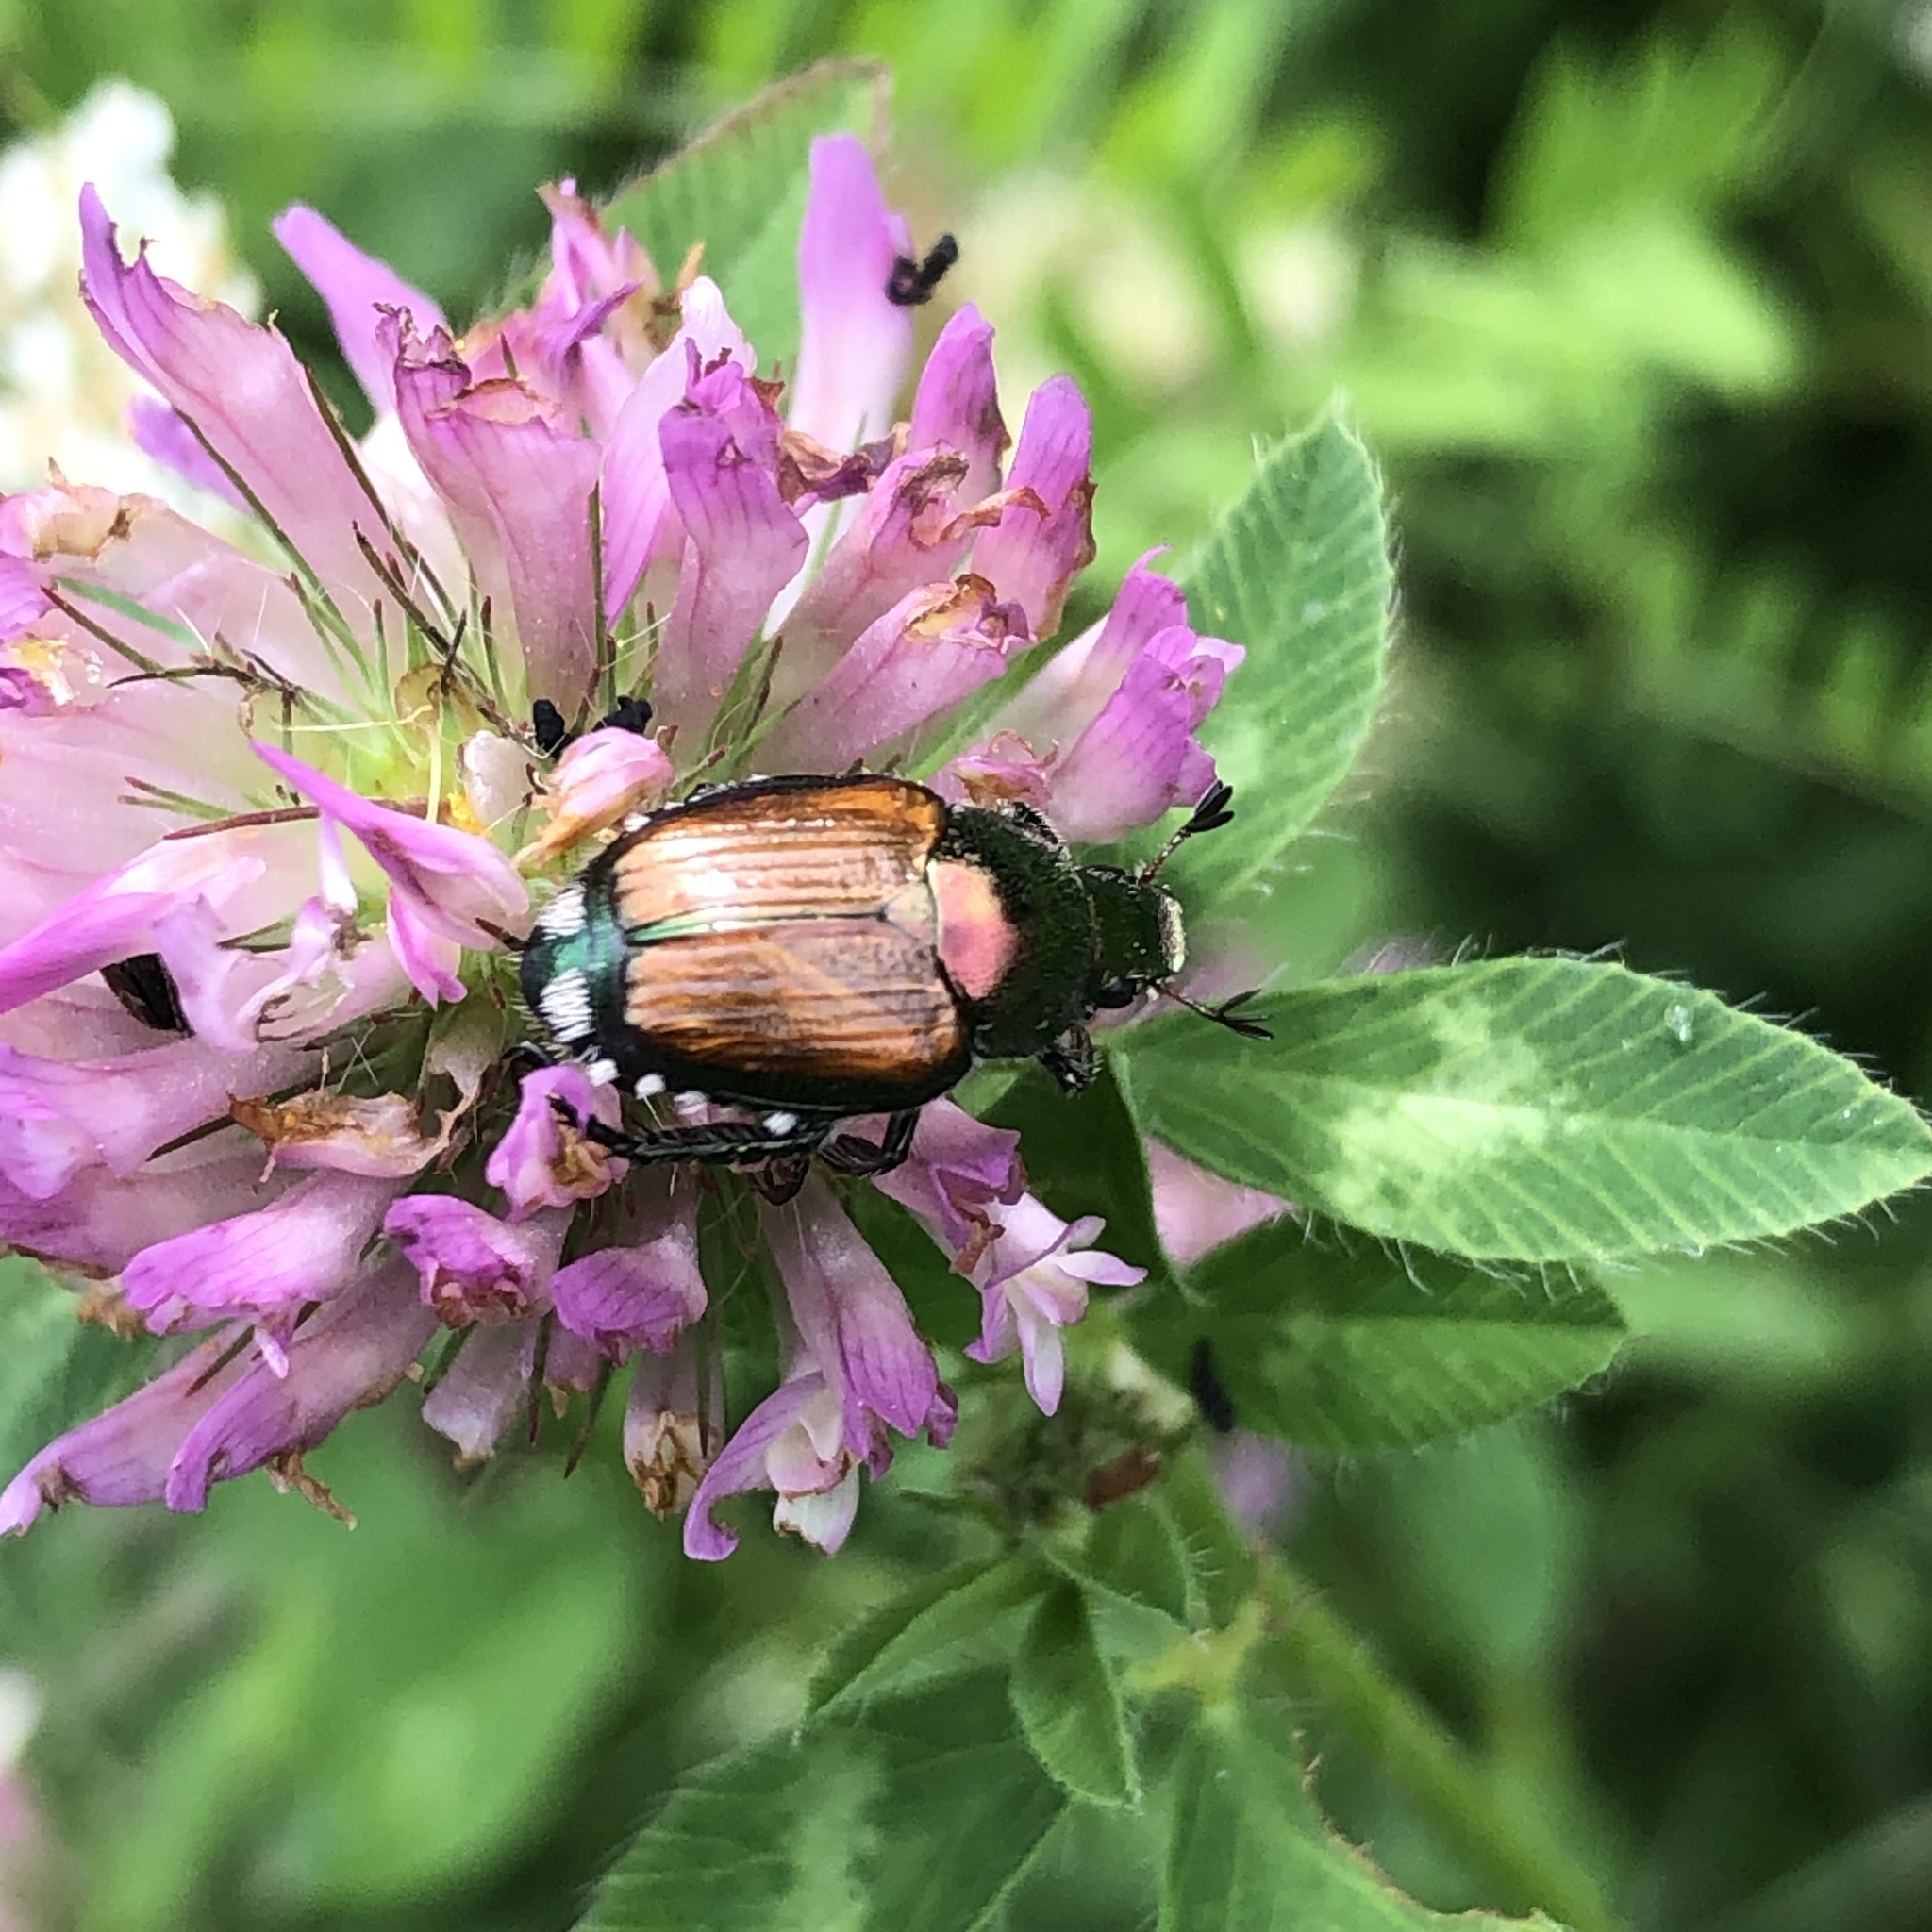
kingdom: Animalia
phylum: Arthropoda
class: Insecta
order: Coleoptera
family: Scarabaeidae
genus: Popillia
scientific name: Popillia japonica
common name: Japanese beetle
